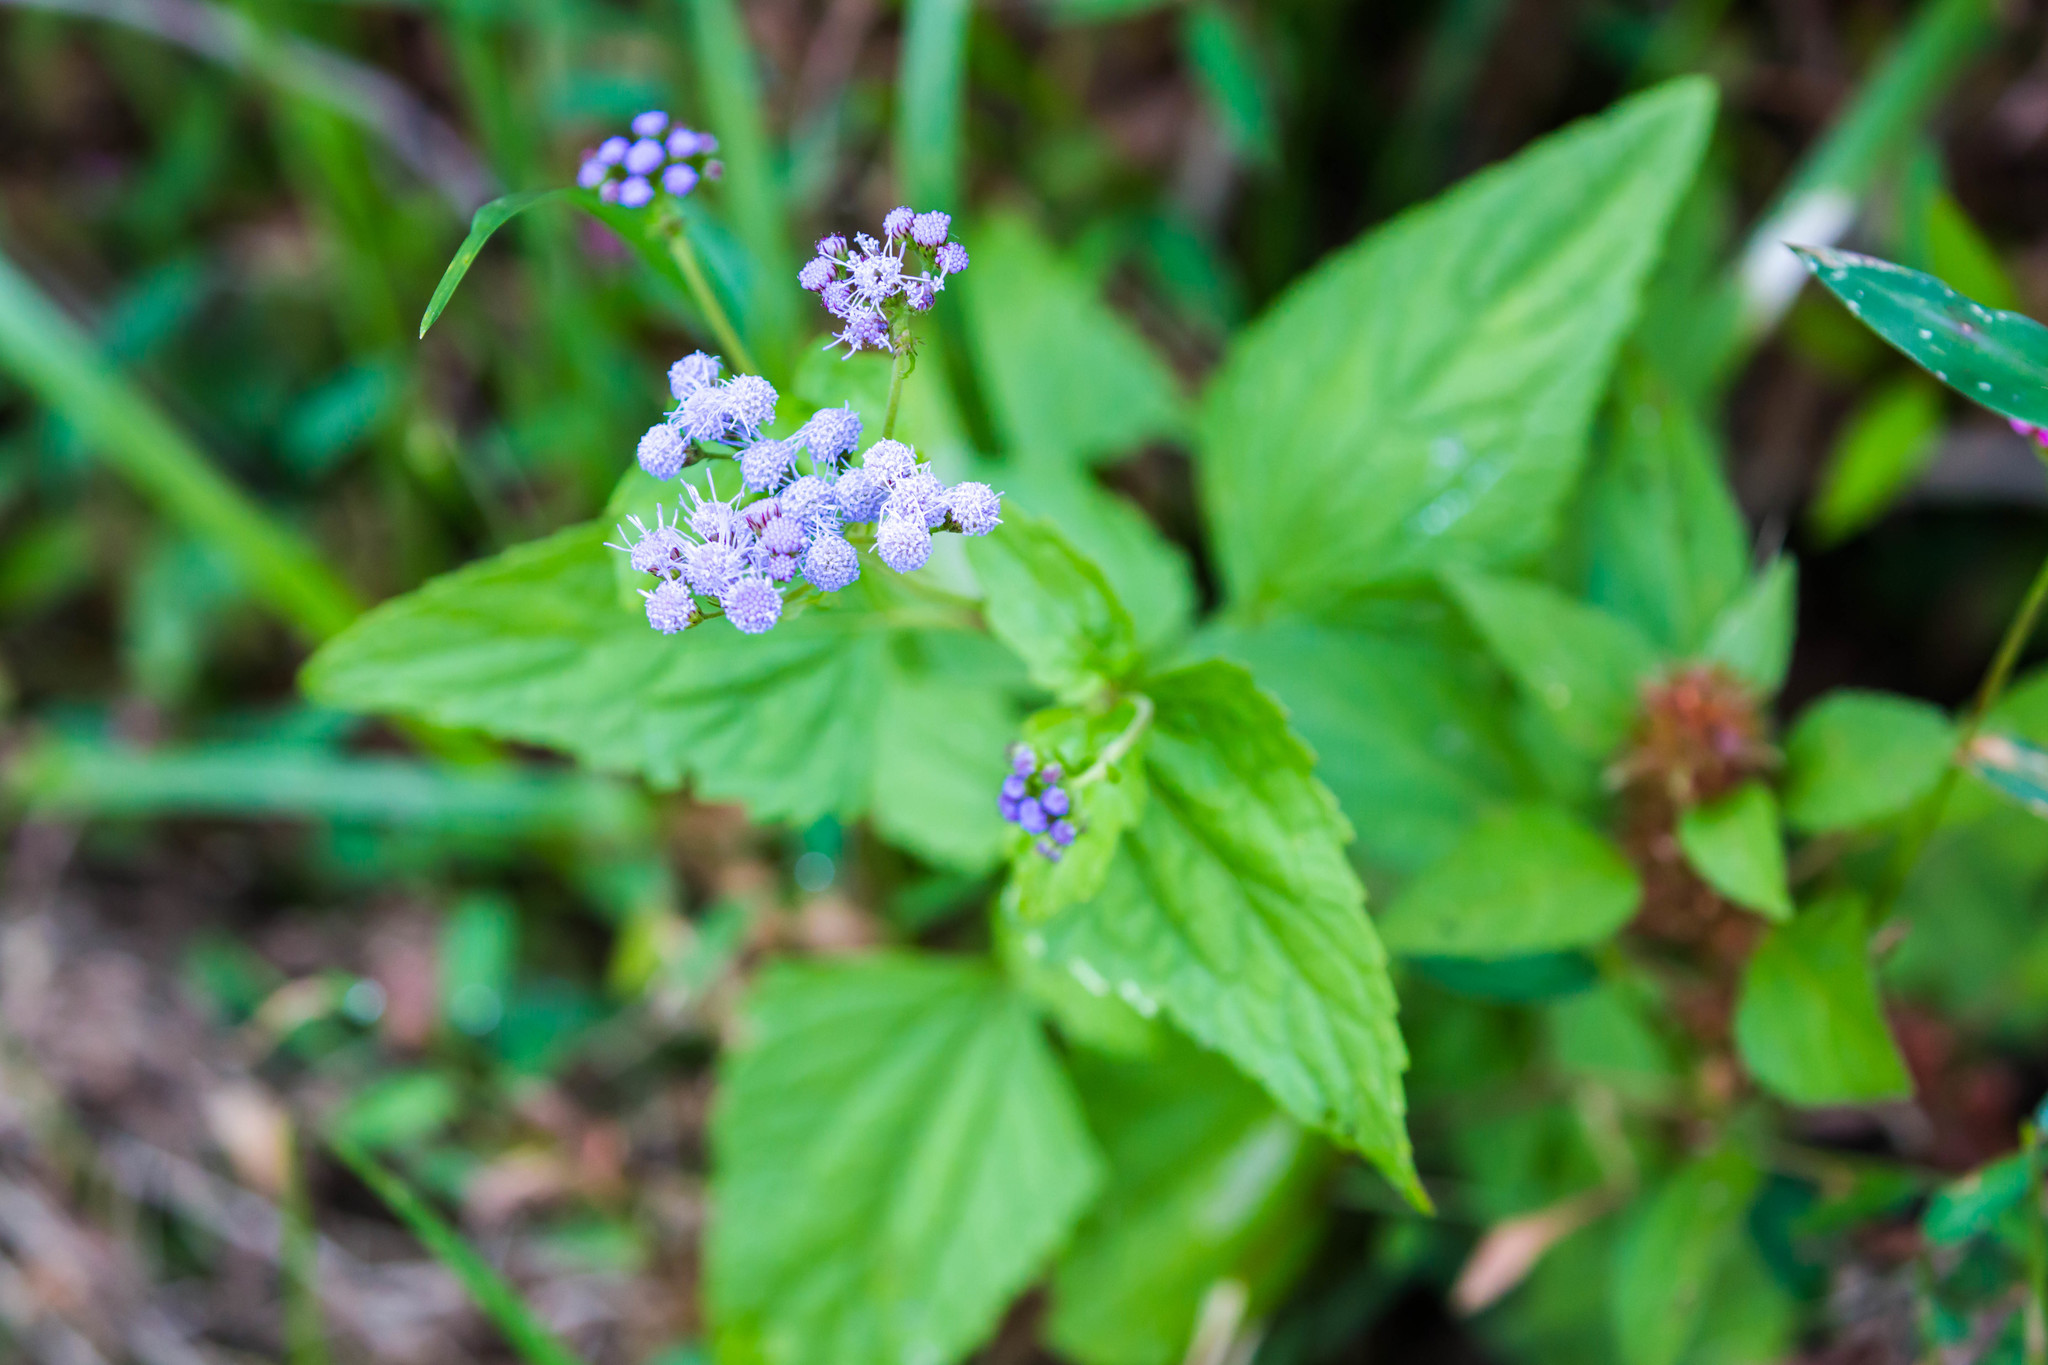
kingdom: Plantae
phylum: Tracheophyta
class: Magnoliopsida
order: Asterales
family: Asteraceae
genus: Conoclinium
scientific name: Conoclinium coelestinum
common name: Blue mistflower
